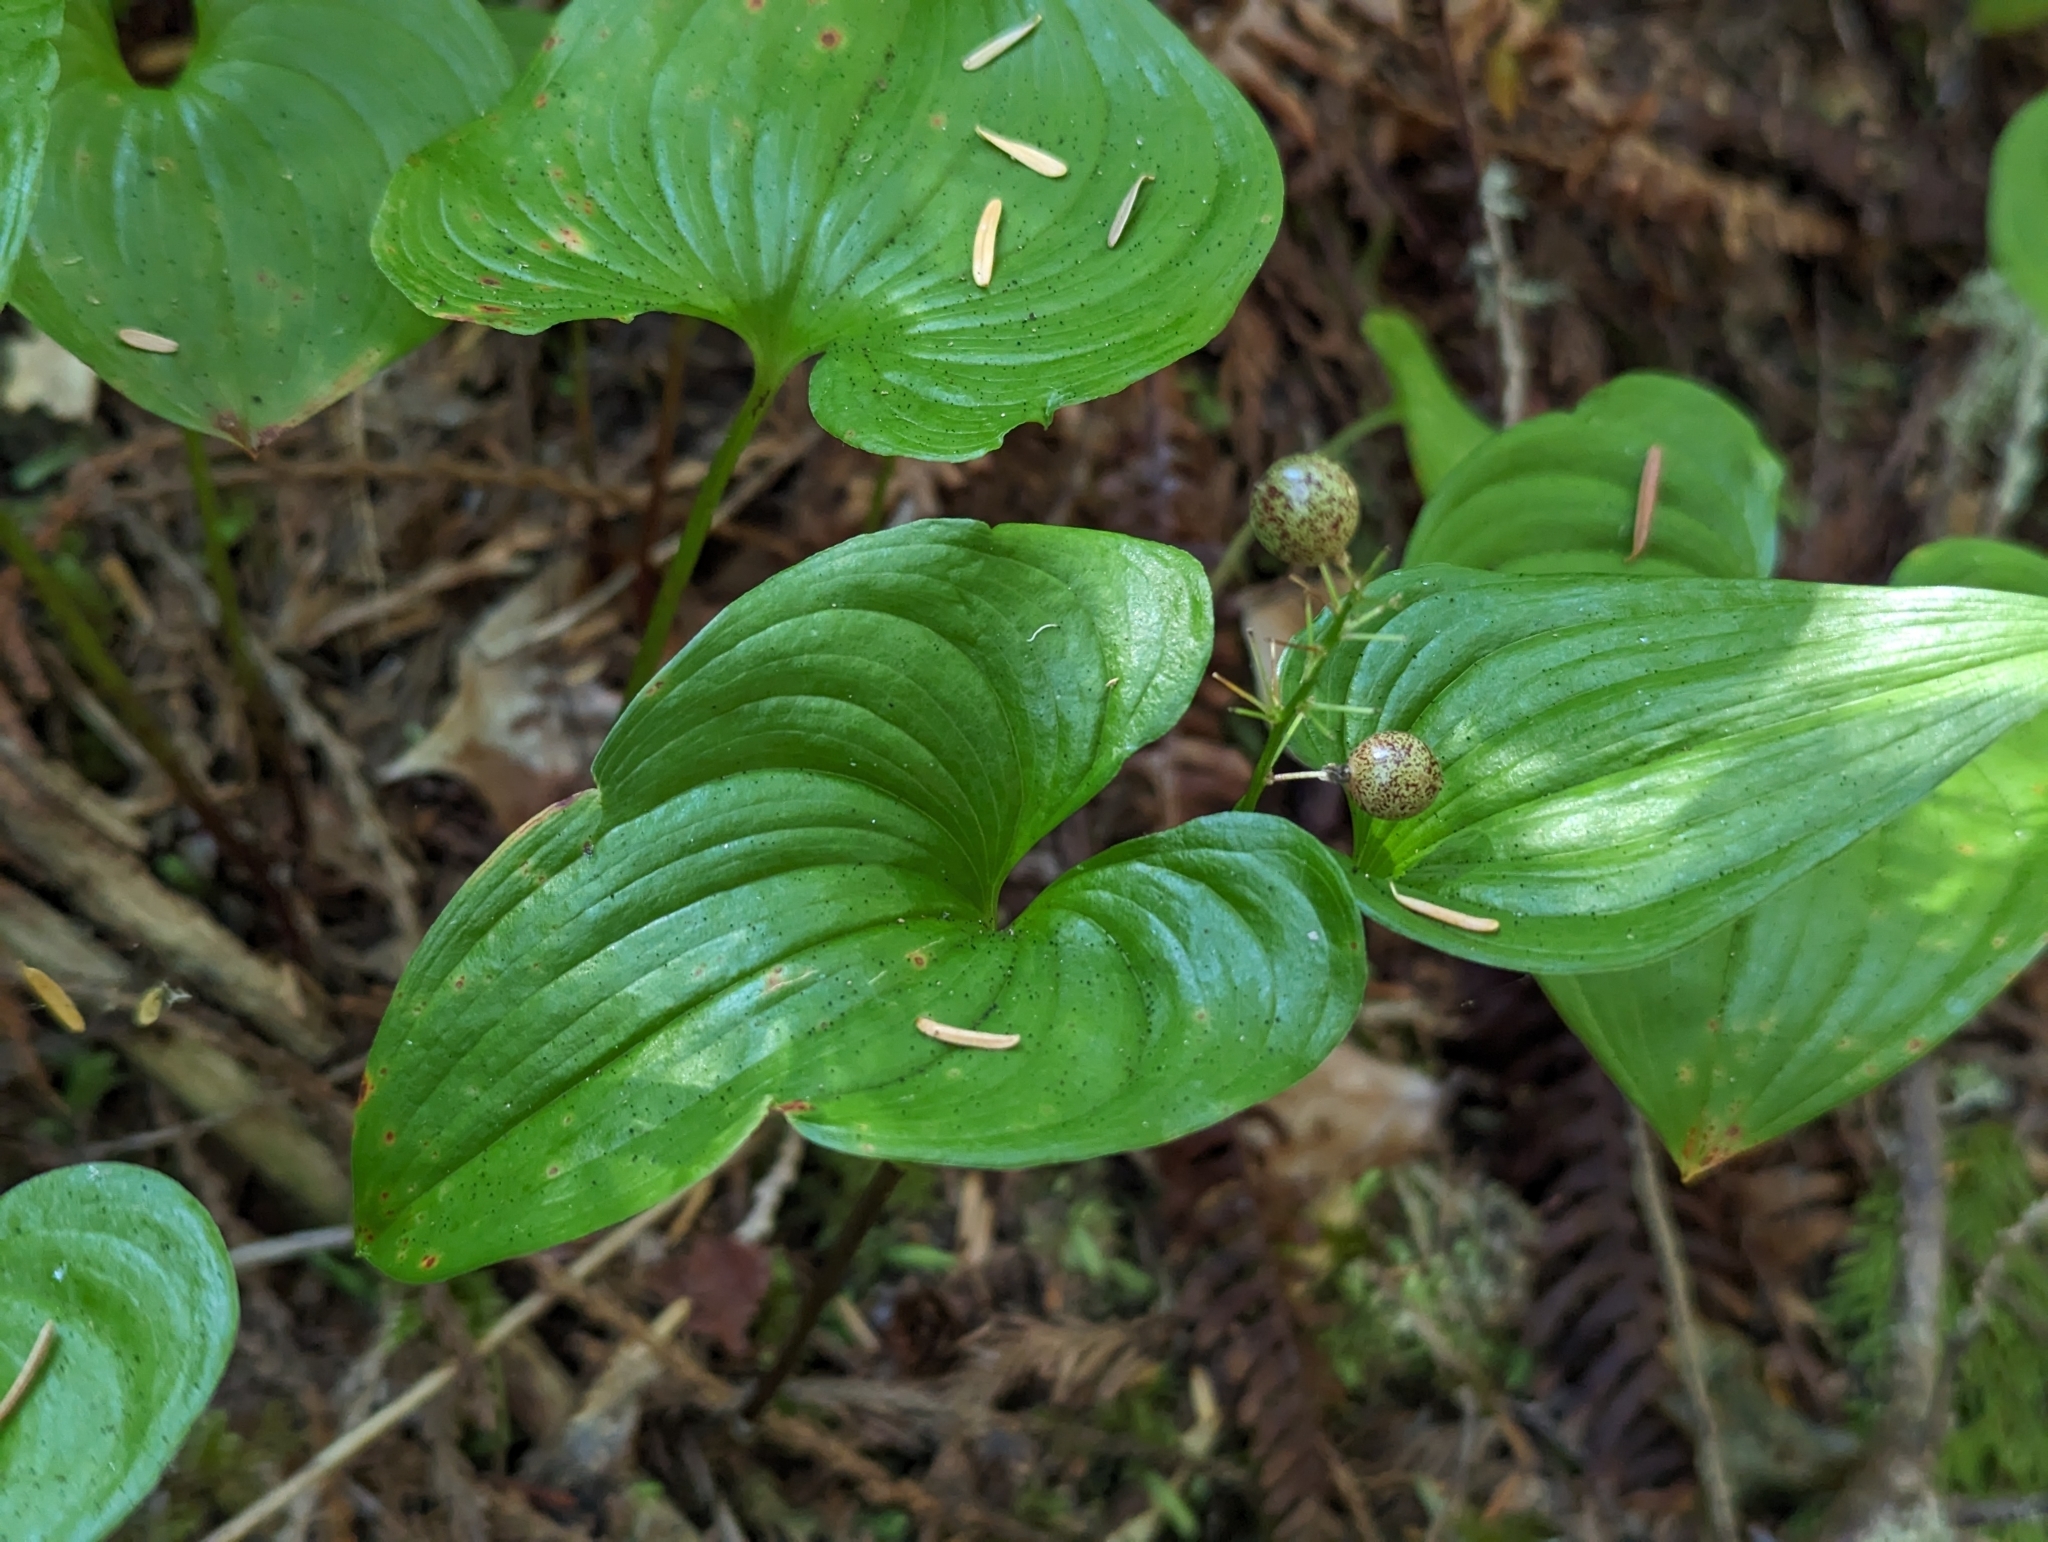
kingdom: Plantae
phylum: Tracheophyta
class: Liliopsida
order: Asparagales
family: Asparagaceae
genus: Maianthemum
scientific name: Maianthemum dilatatum
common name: False lily-of-the-valley
